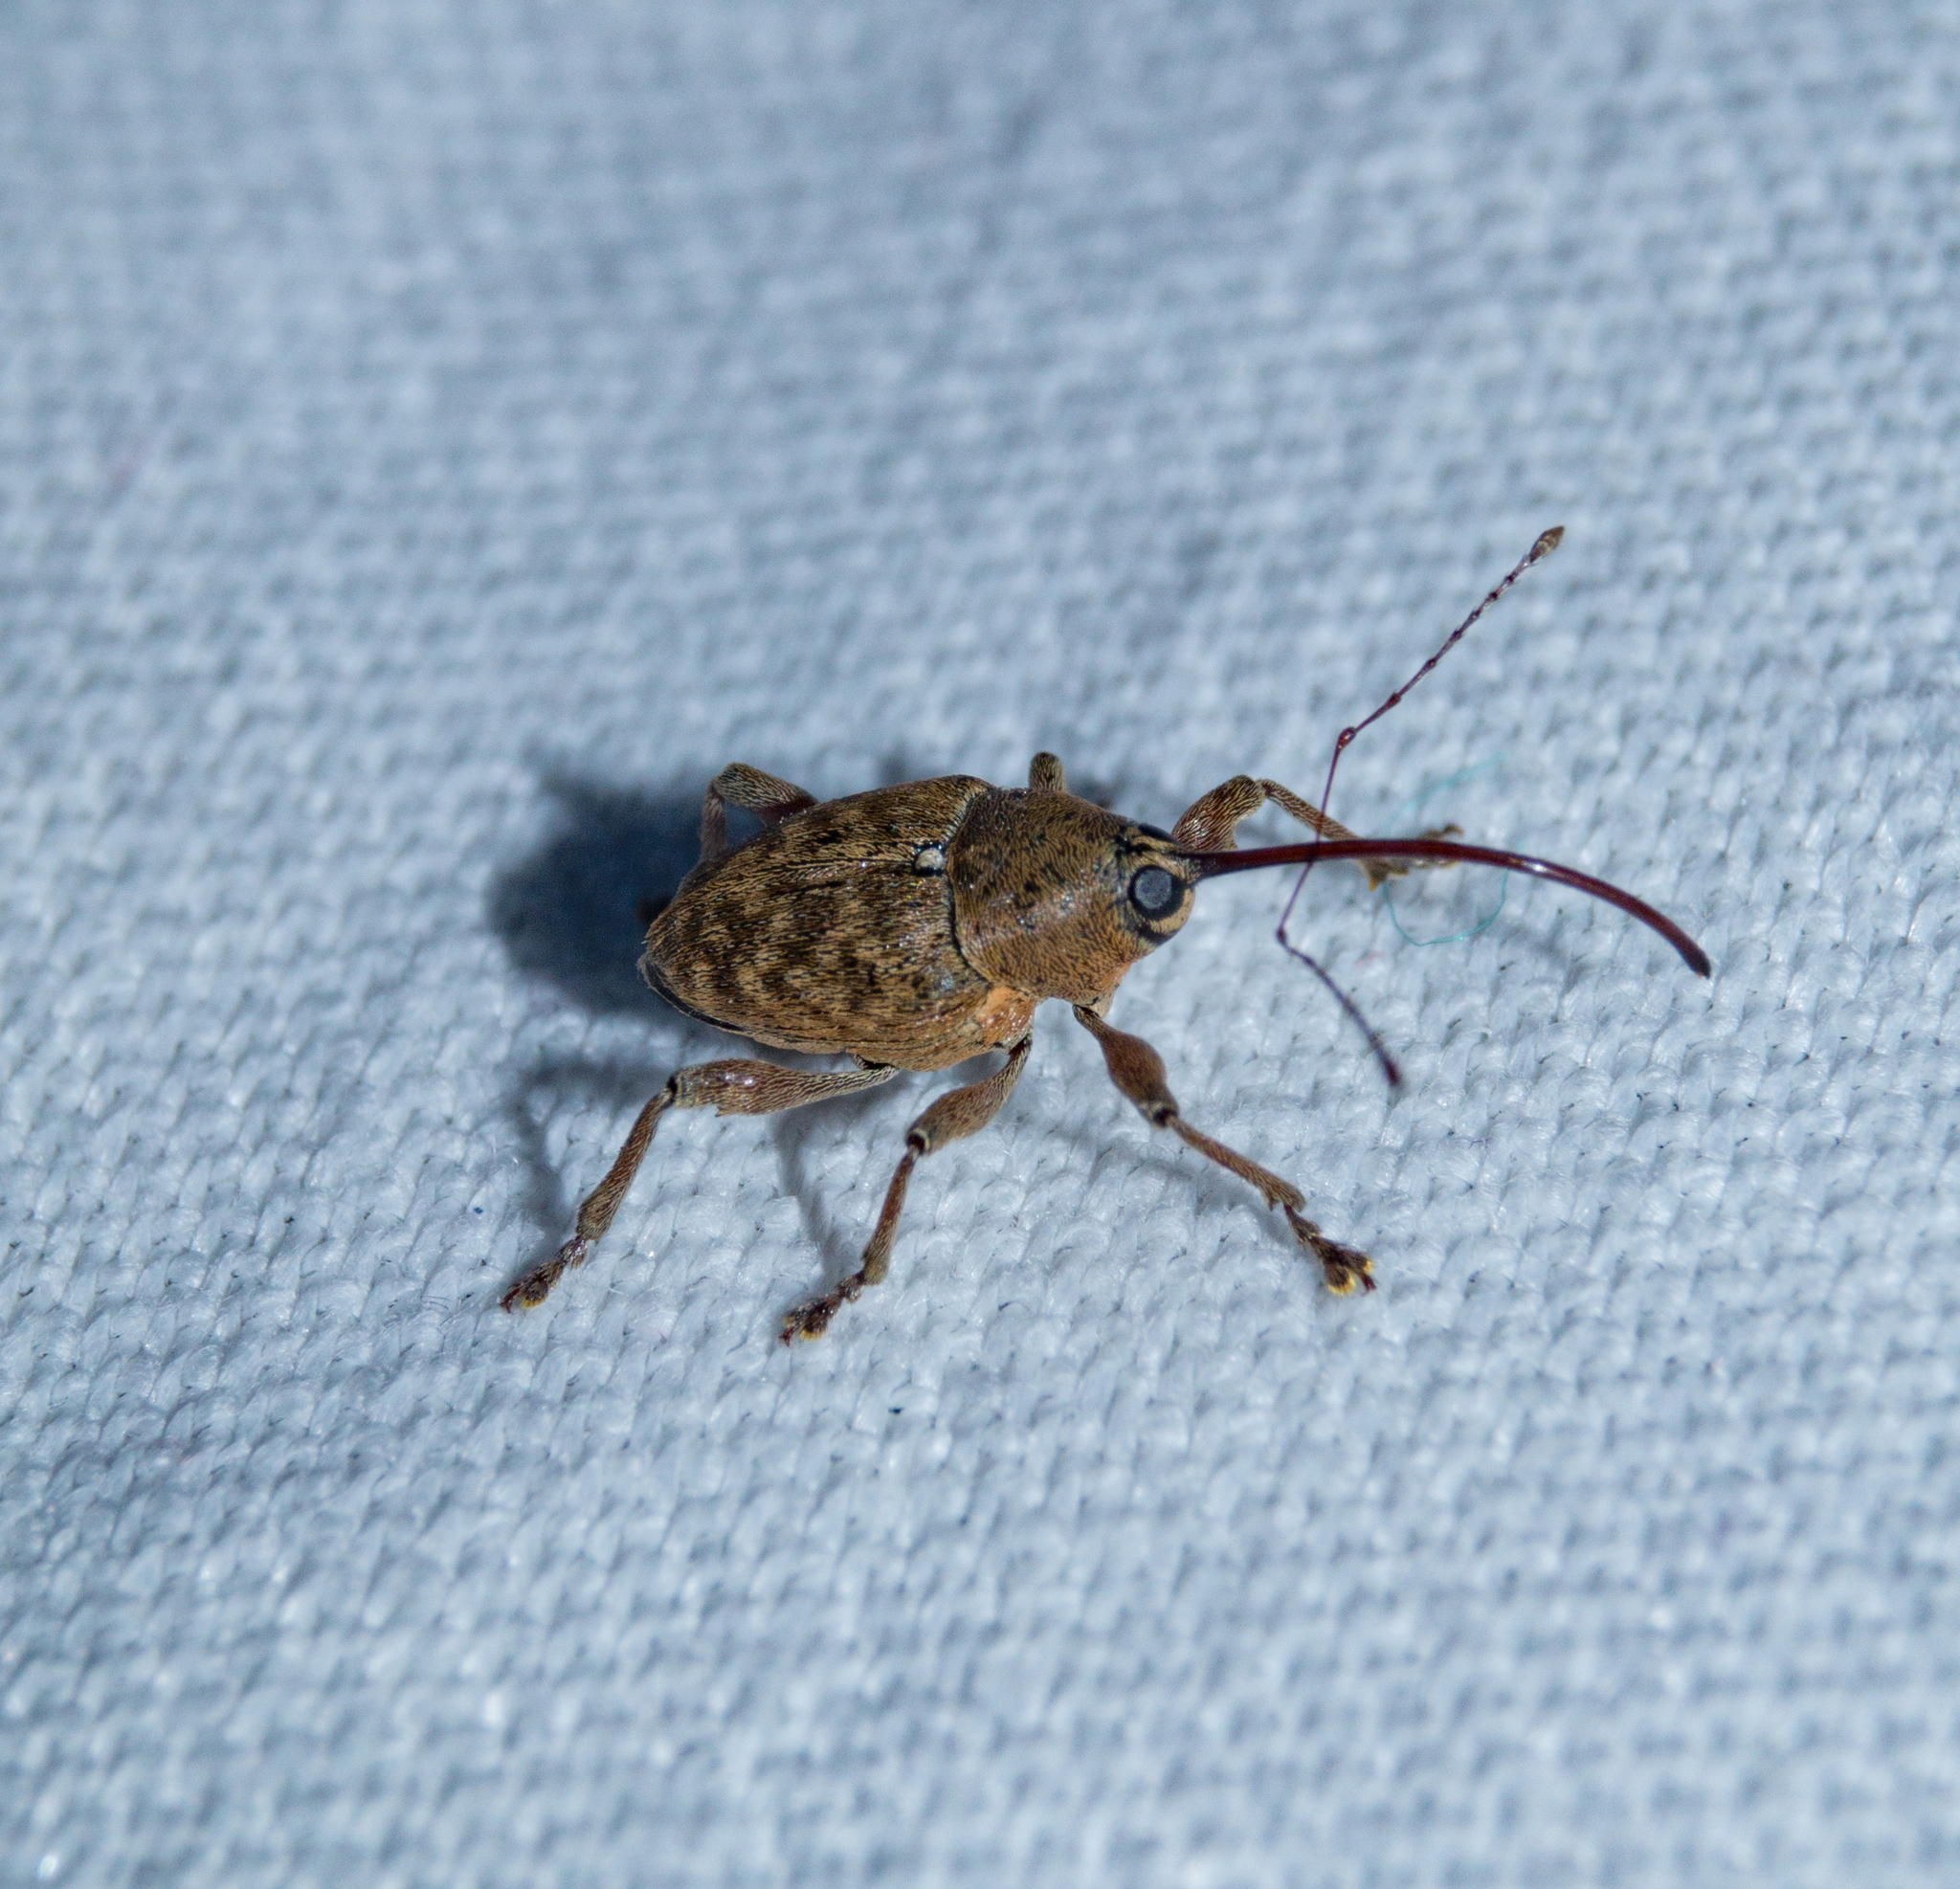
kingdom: Animalia
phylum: Arthropoda
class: Insecta
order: Coleoptera
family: Curculionidae
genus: Curculio
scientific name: Curculio glandium
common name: Acorn weevil
